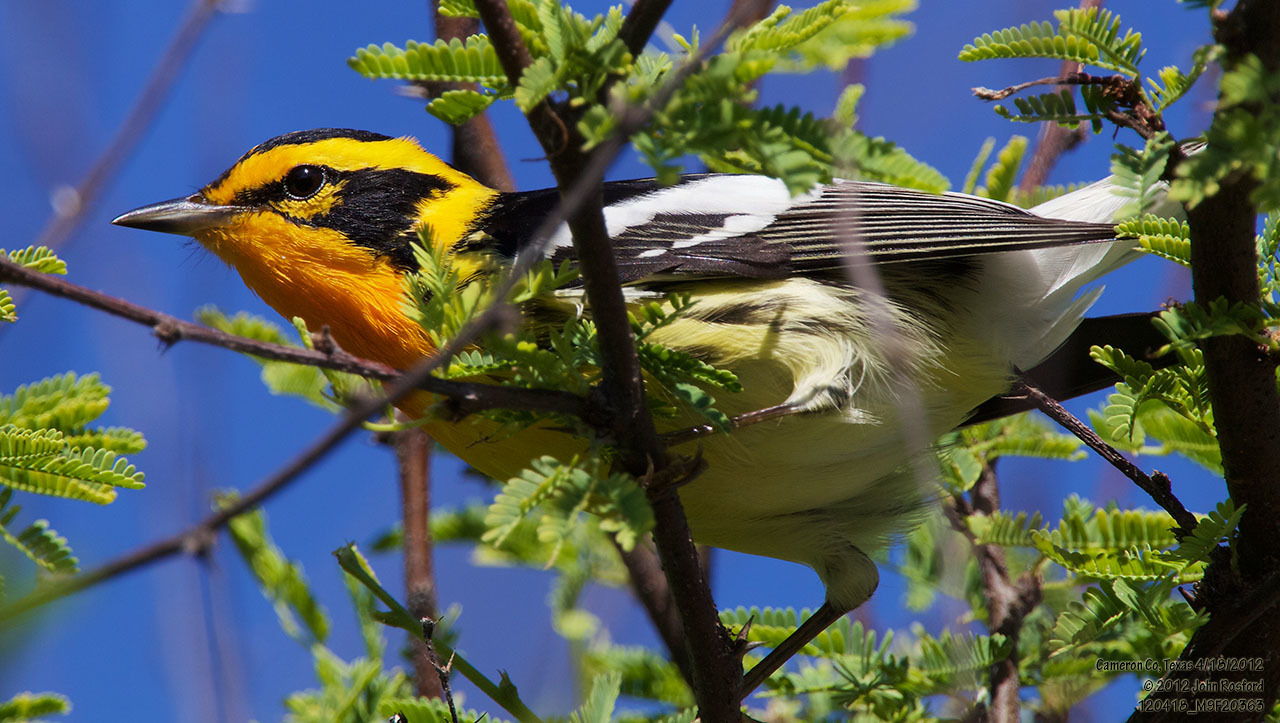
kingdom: Animalia
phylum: Chordata
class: Aves
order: Passeriformes
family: Parulidae
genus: Setophaga
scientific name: Setophaga fusca
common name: Blackburnian warbler
